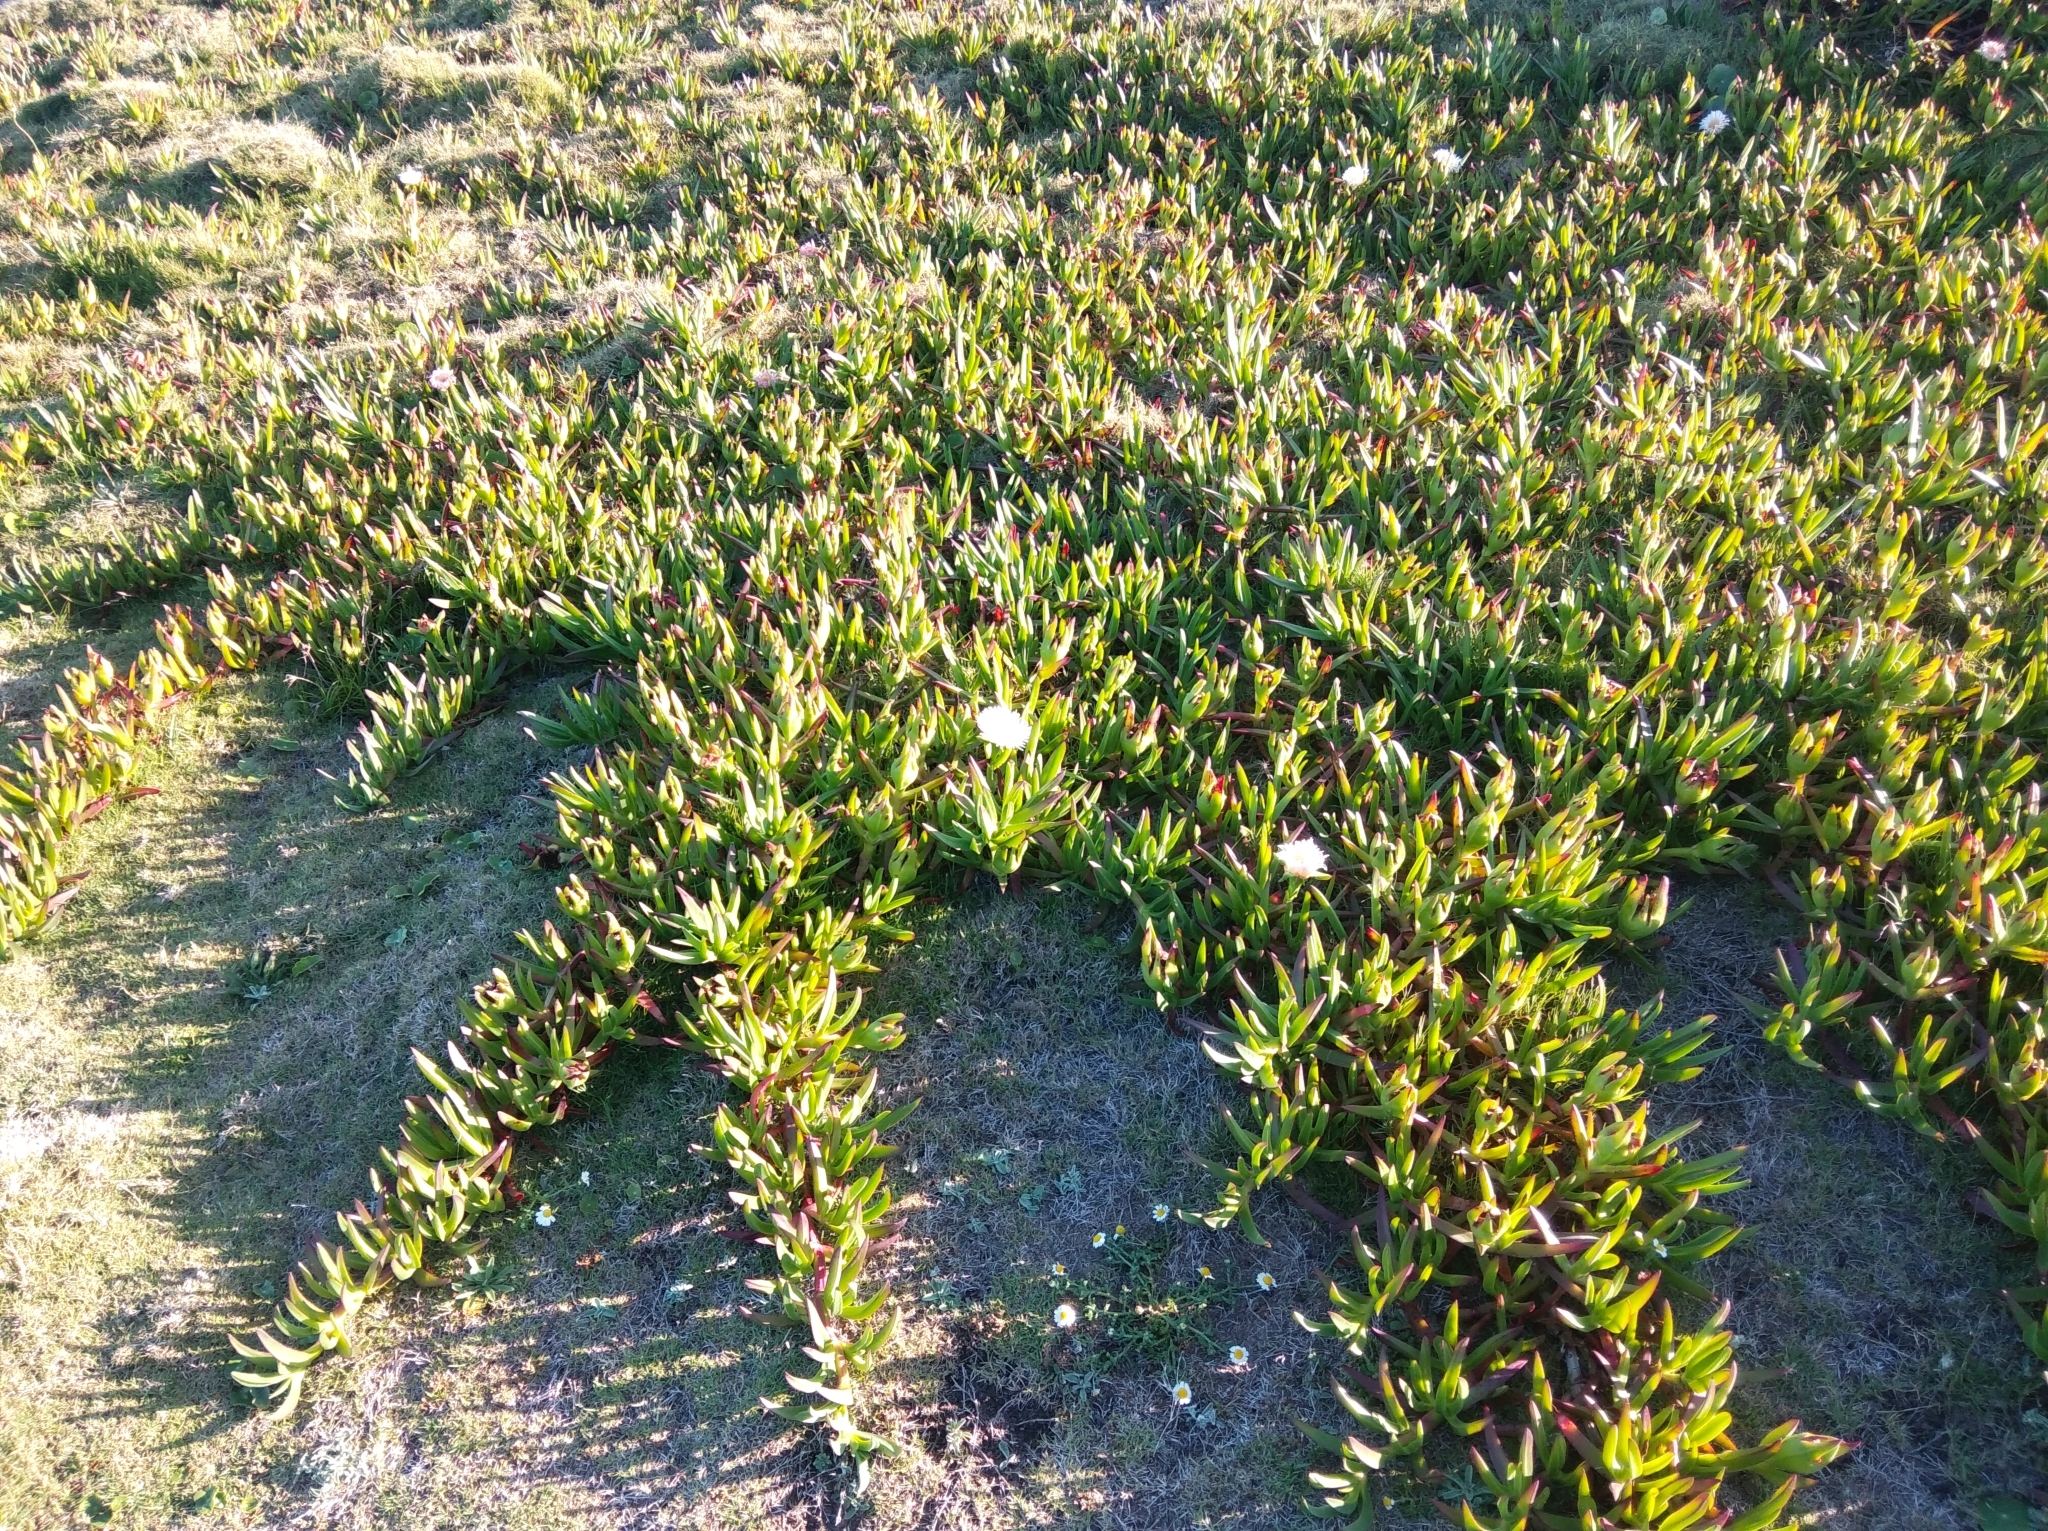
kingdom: Plantae
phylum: Tracheophyta
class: Magnoliopsida
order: Caryophyllales
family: Aizoaceae
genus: Carpobrotus
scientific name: Carpobrotus edulis
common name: Hottentot-fig
